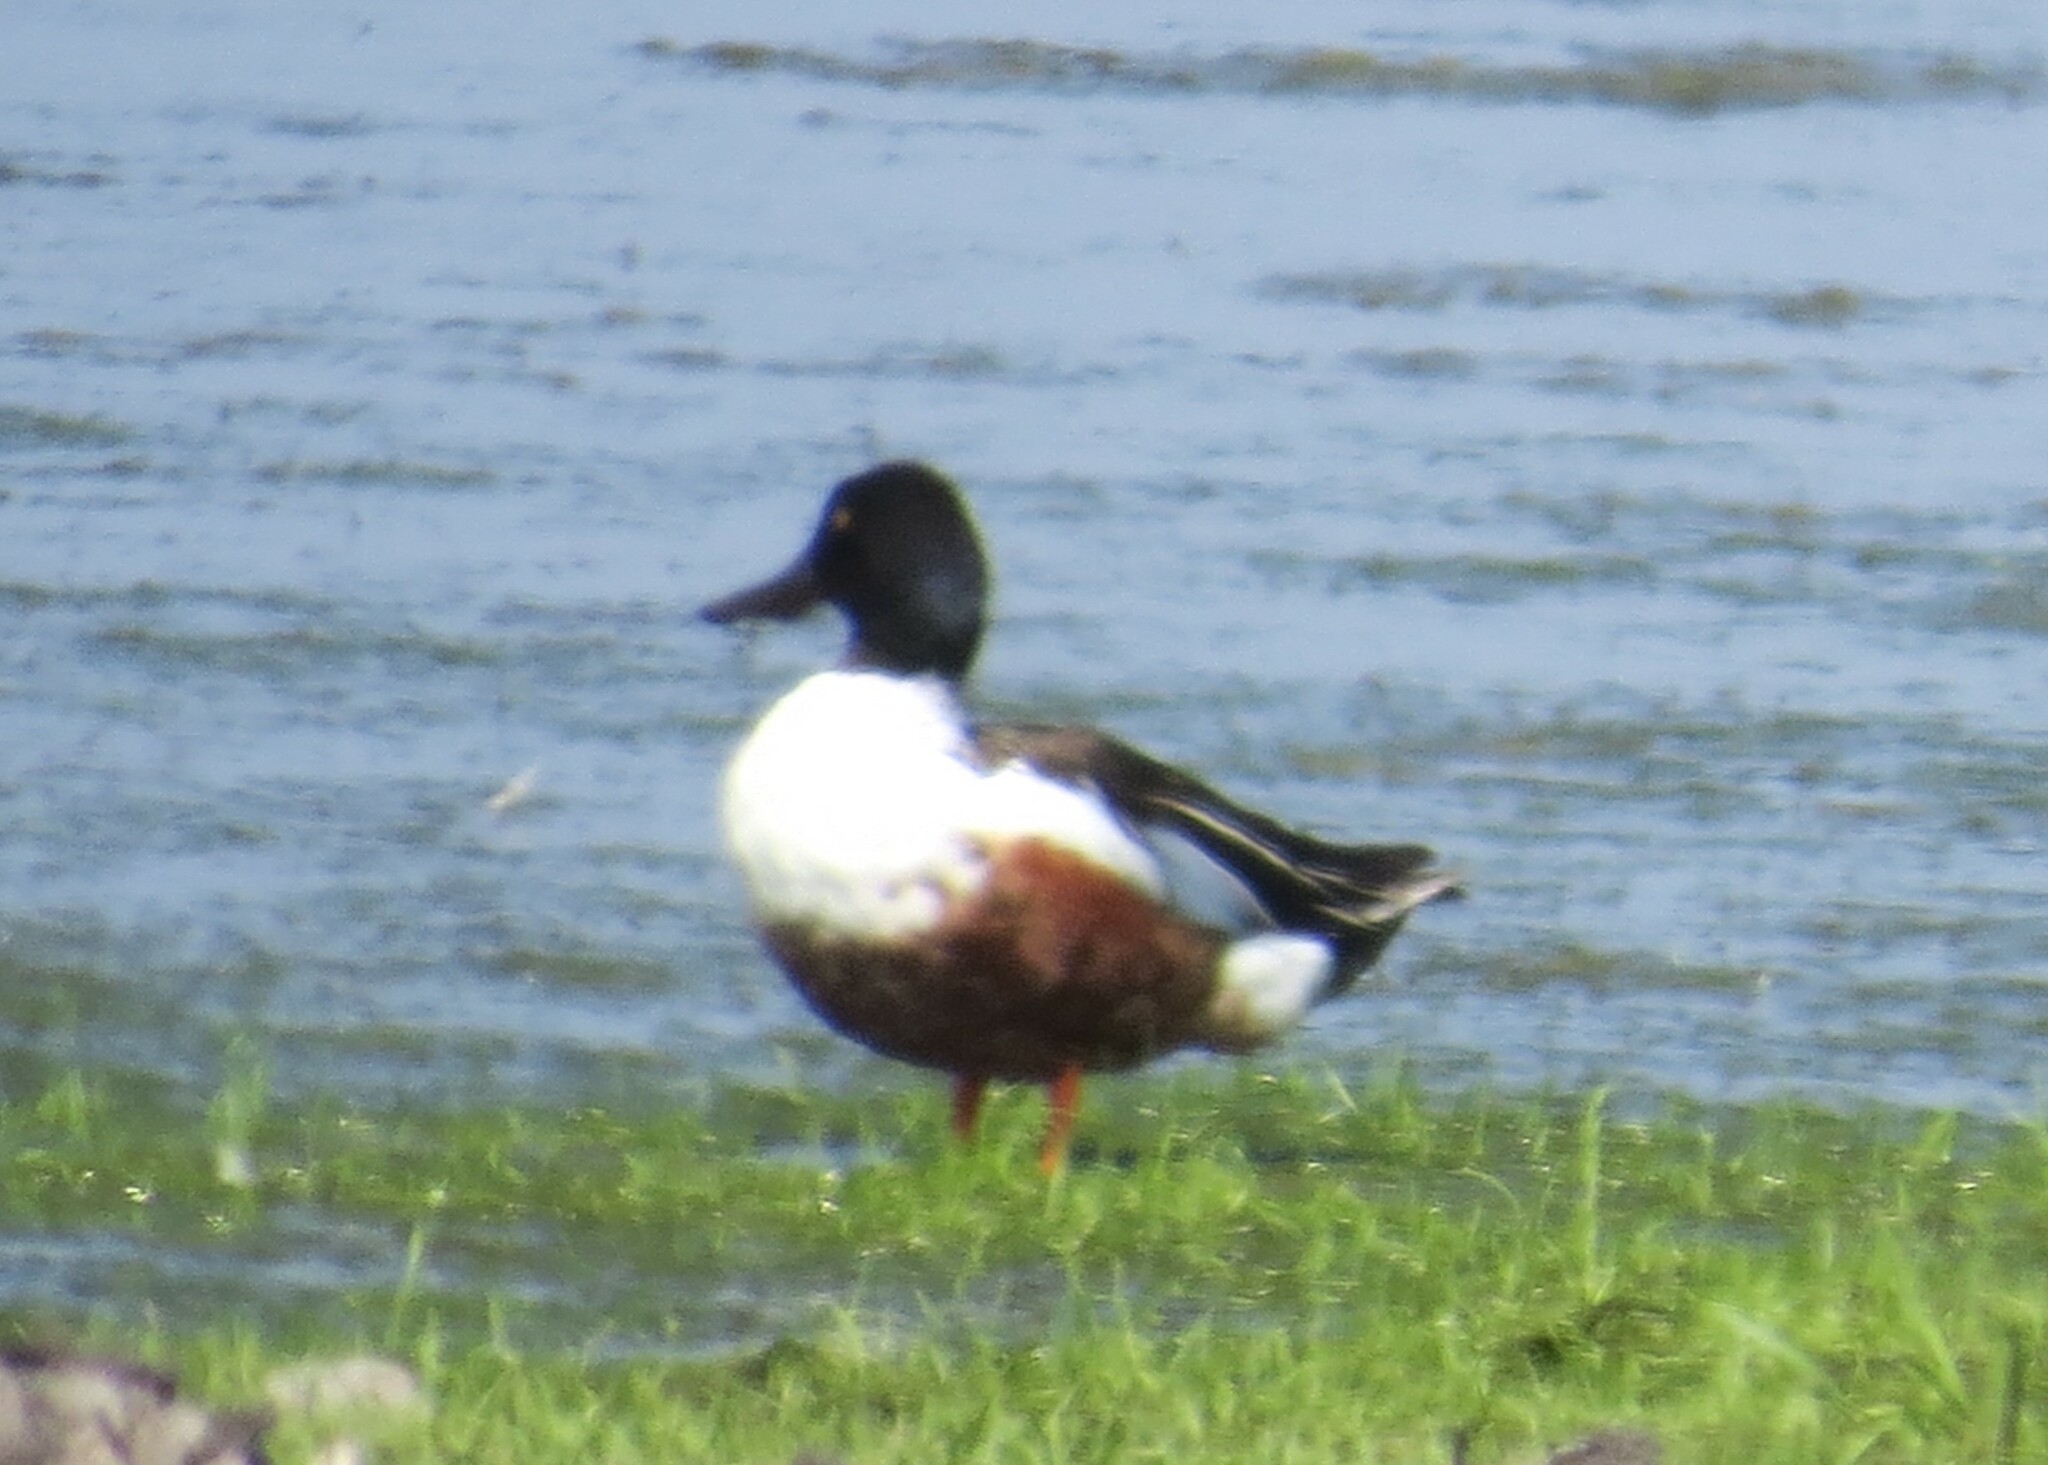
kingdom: Animalia
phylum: Chordata
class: Aves
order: Anseriformes
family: Anatidae
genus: Spatula
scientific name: Spatula clypeata
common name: Northern shoveler
